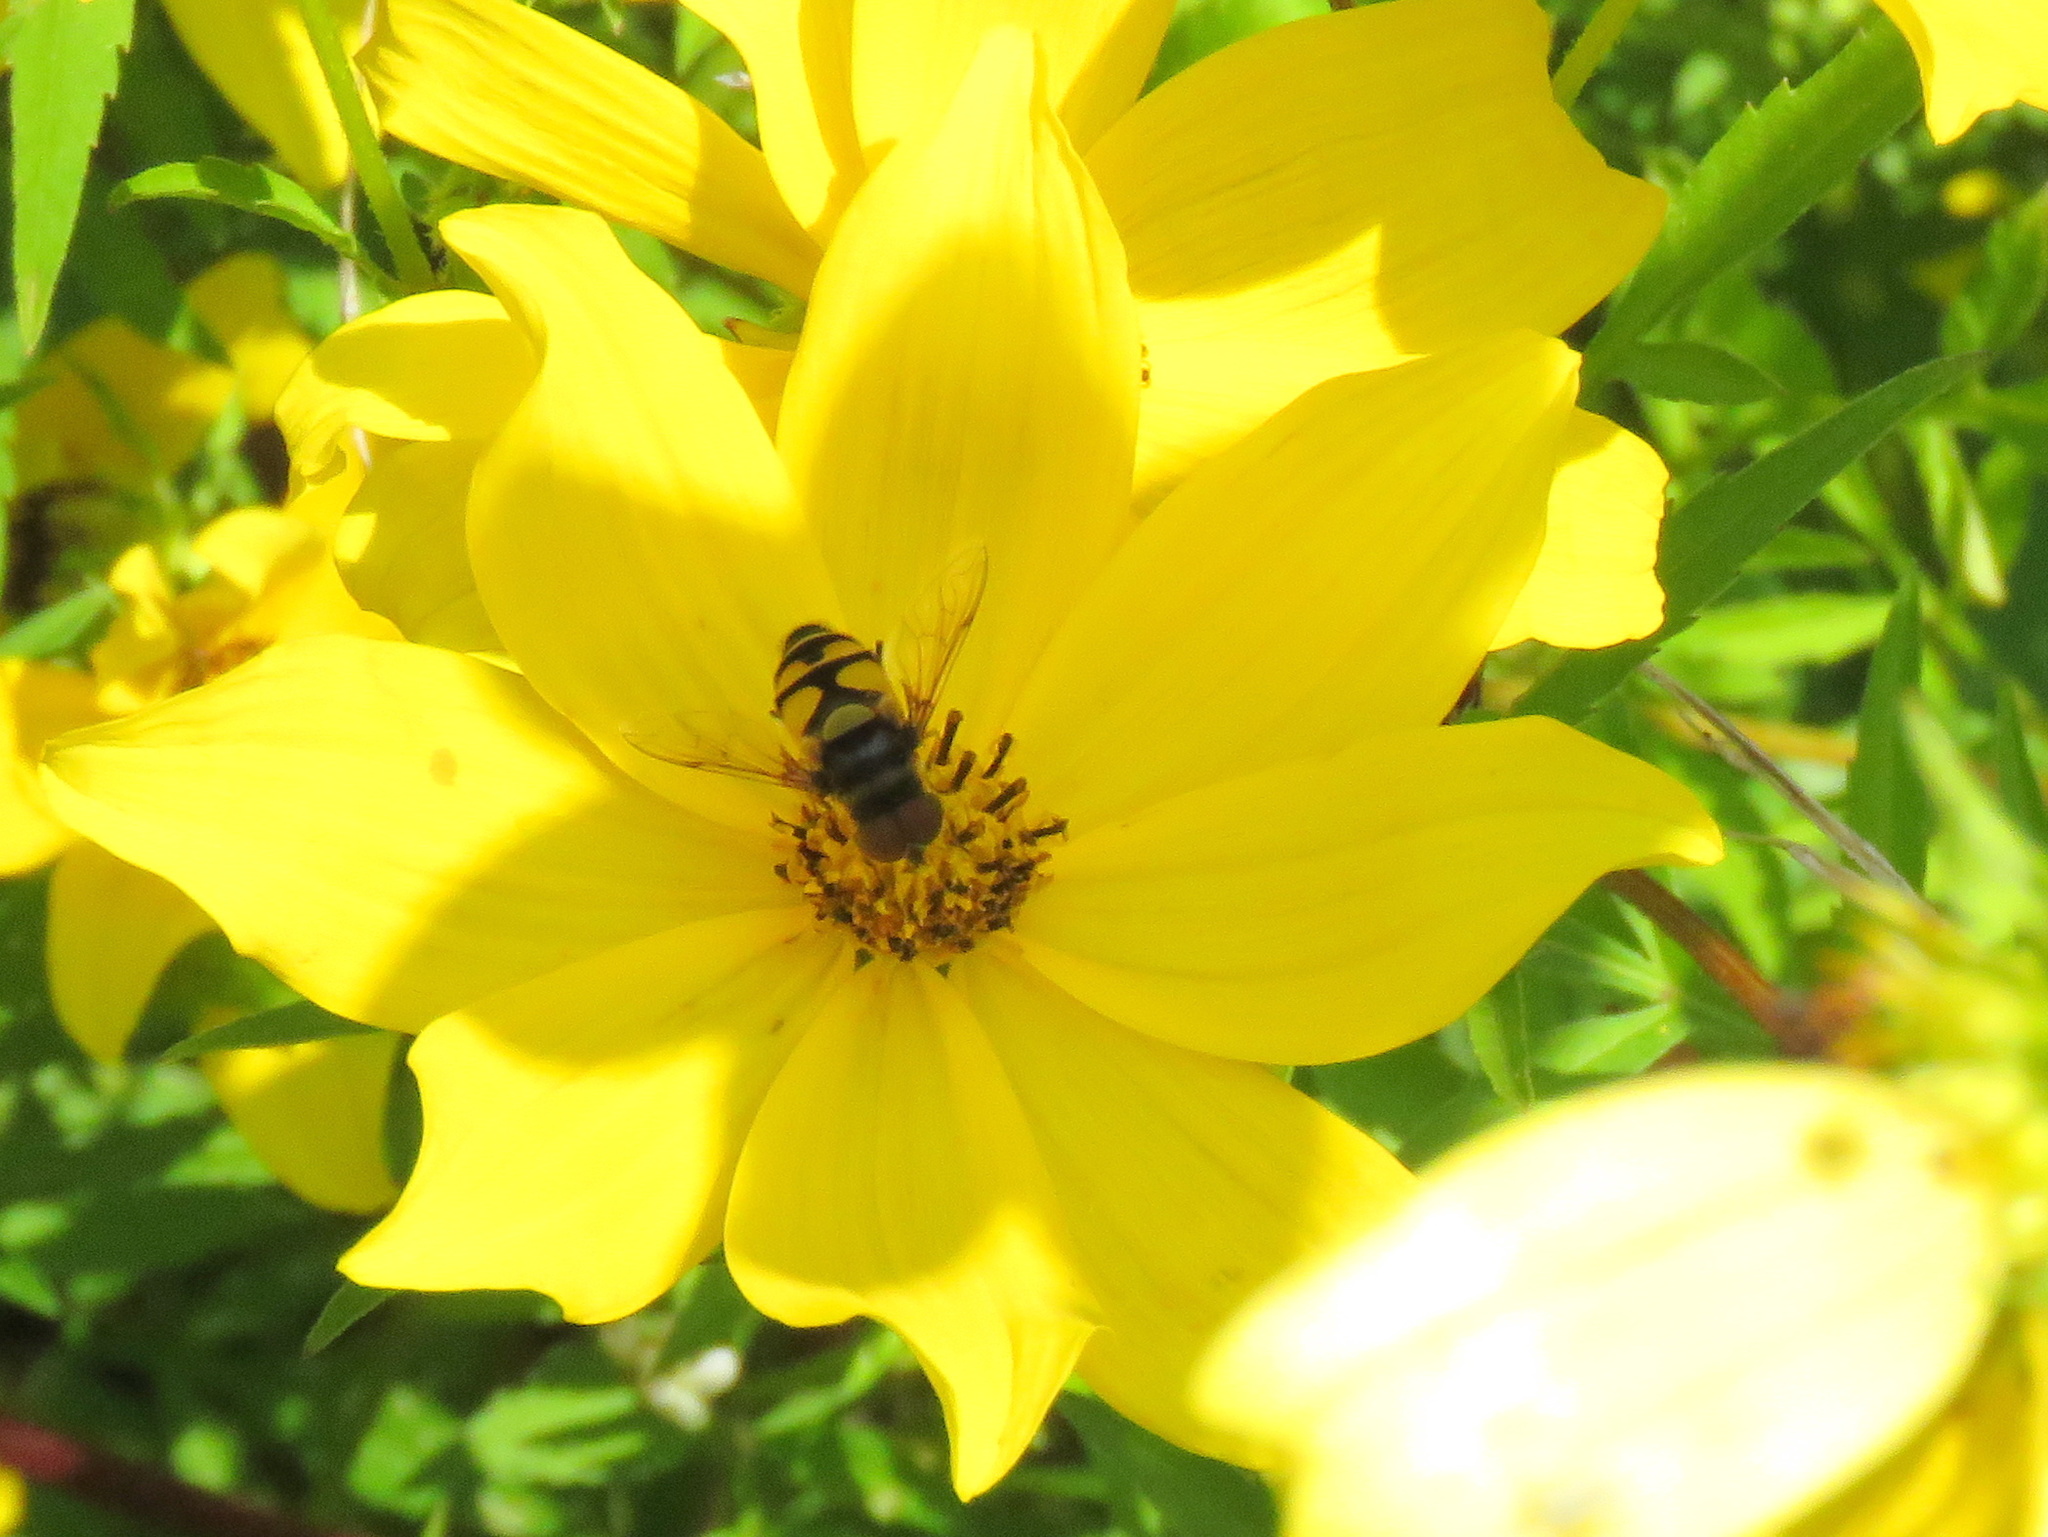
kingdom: Animalia
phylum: Arthropoda
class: Insecta
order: Diptera
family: Syrphidae
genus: Eristalis
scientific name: Eristalis transversa
